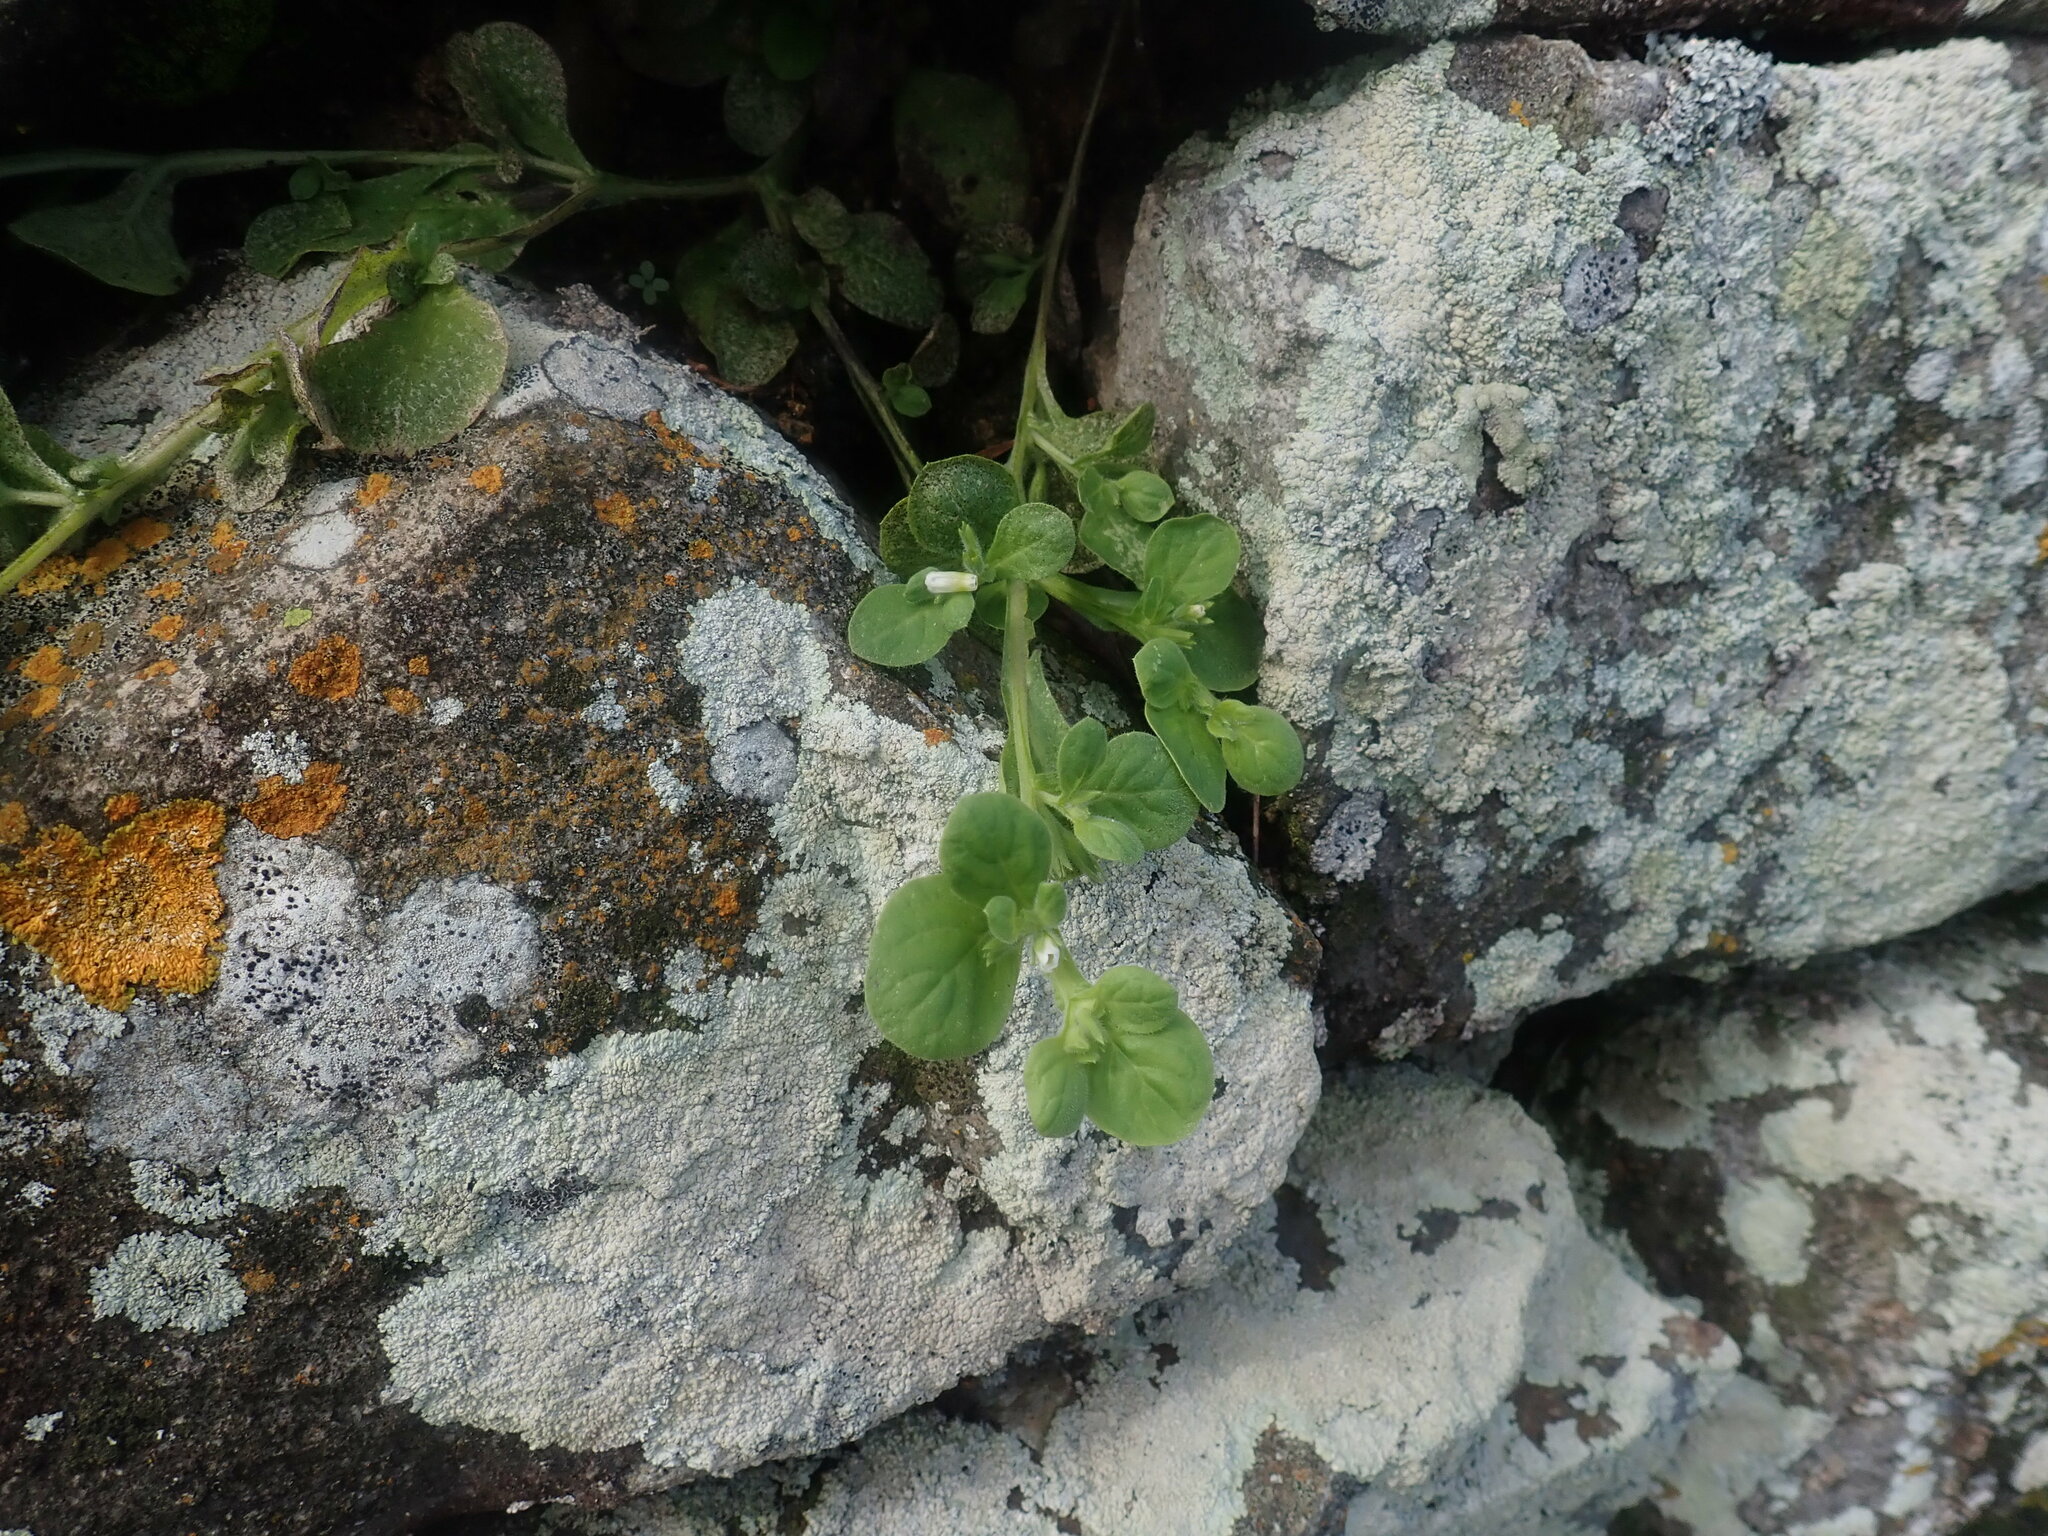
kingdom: Plantae
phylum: Tracheophyta
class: Magnoliopsida
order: Boraginales
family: Namaceae
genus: Nama
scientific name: Nama jamaicensis
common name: Jamaicanweed
